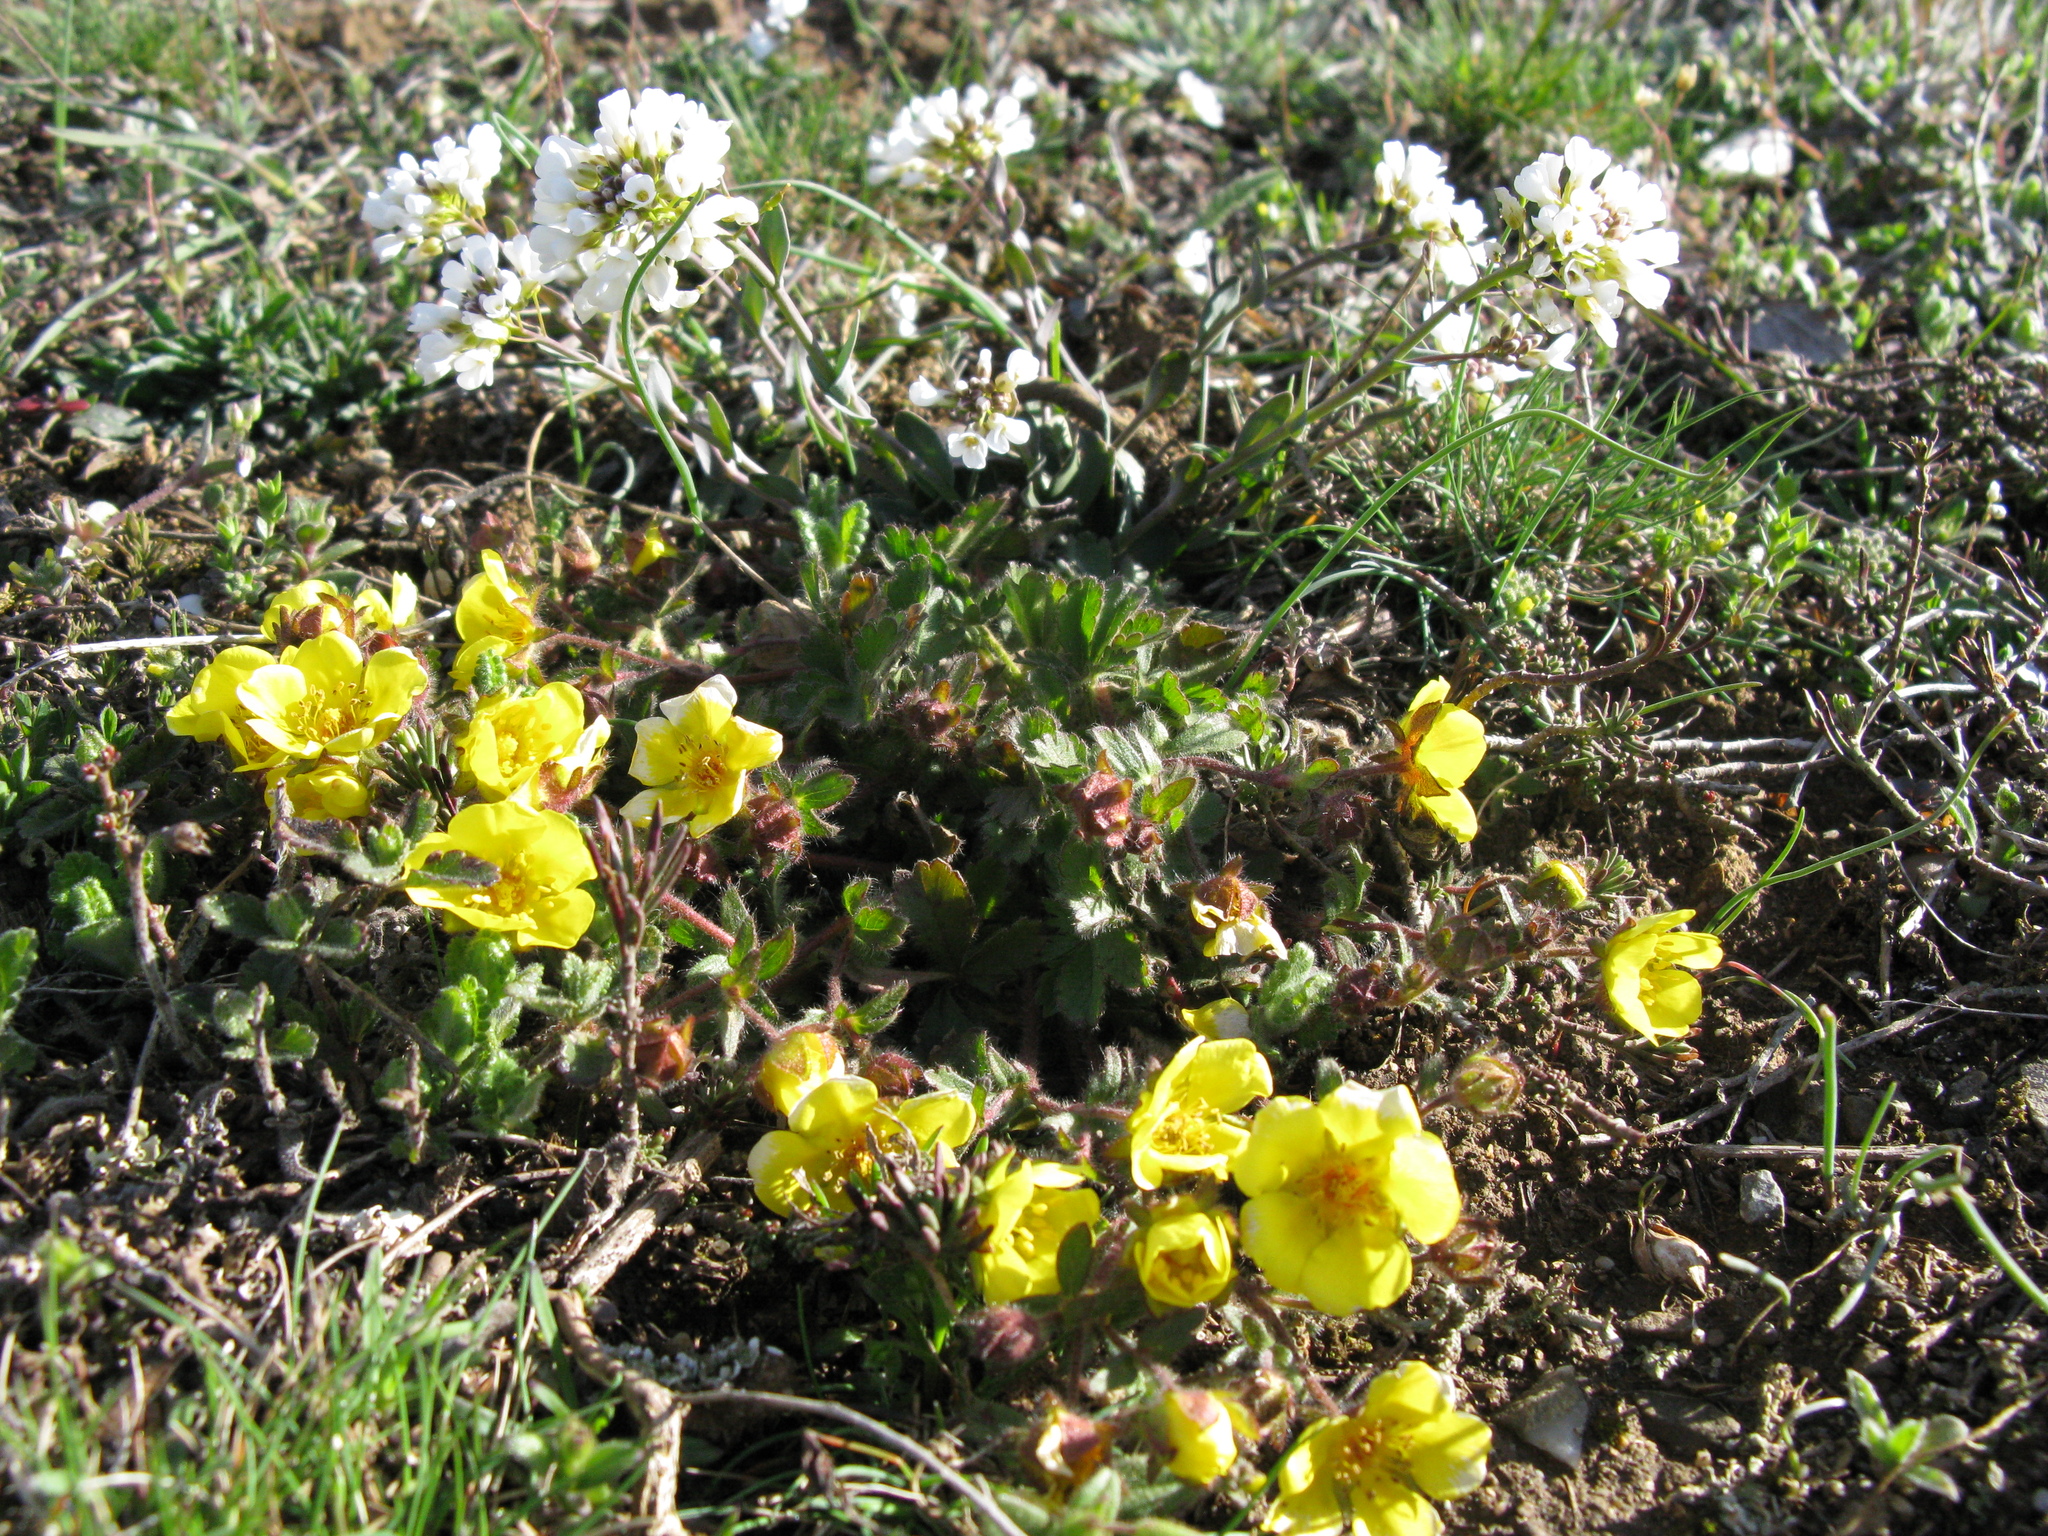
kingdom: Plantae
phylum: Tracheophyta
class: Magnoliopsida
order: Rosales
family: Rosaceae
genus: Potentilla
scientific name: Potentilla humifusa
